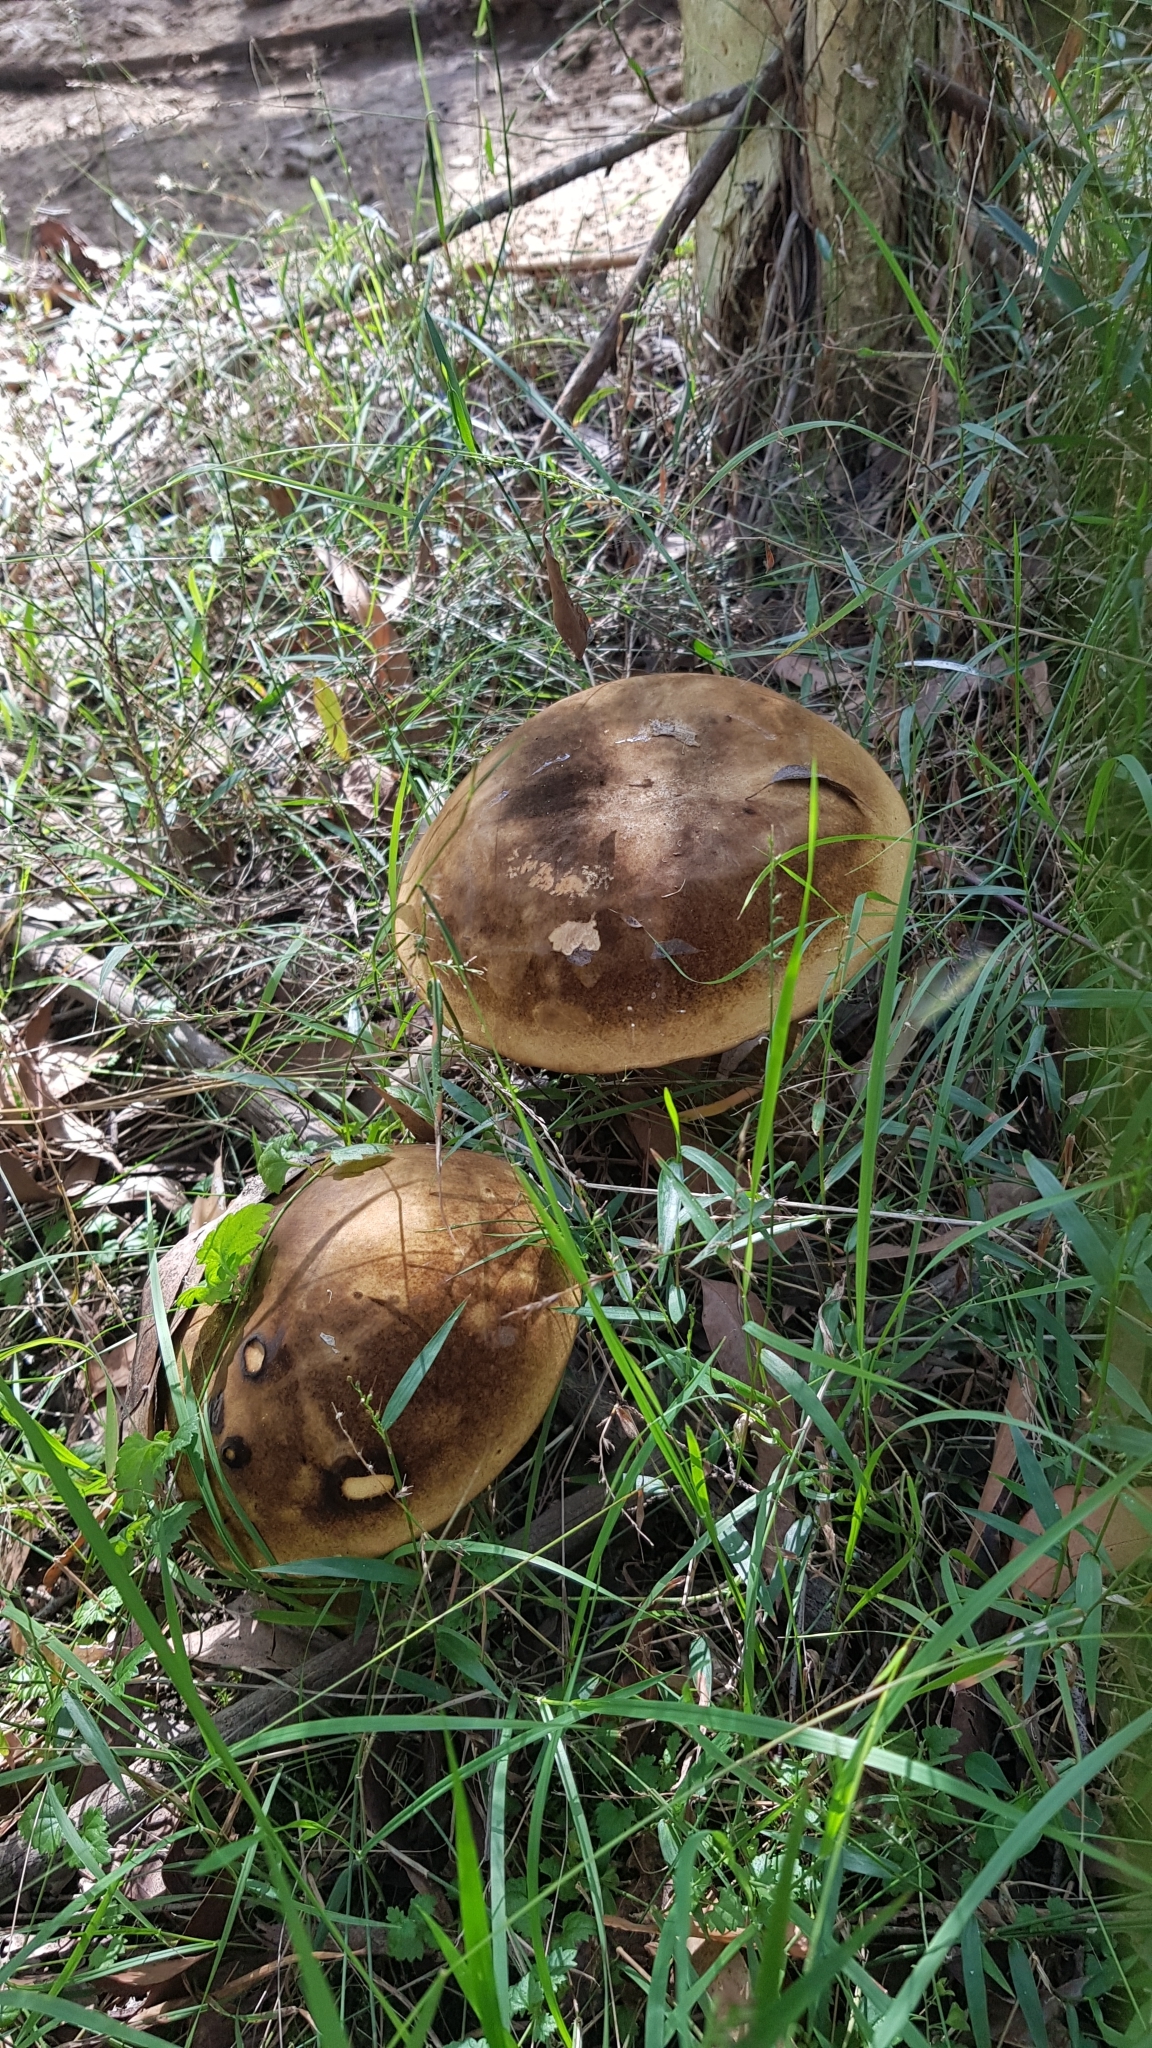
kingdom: Fungi
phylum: Basidiomycota
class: Agaricomycetes
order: Boletales
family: Boletinellaceae
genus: Phlebopus
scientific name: Phlebopus marginatus
